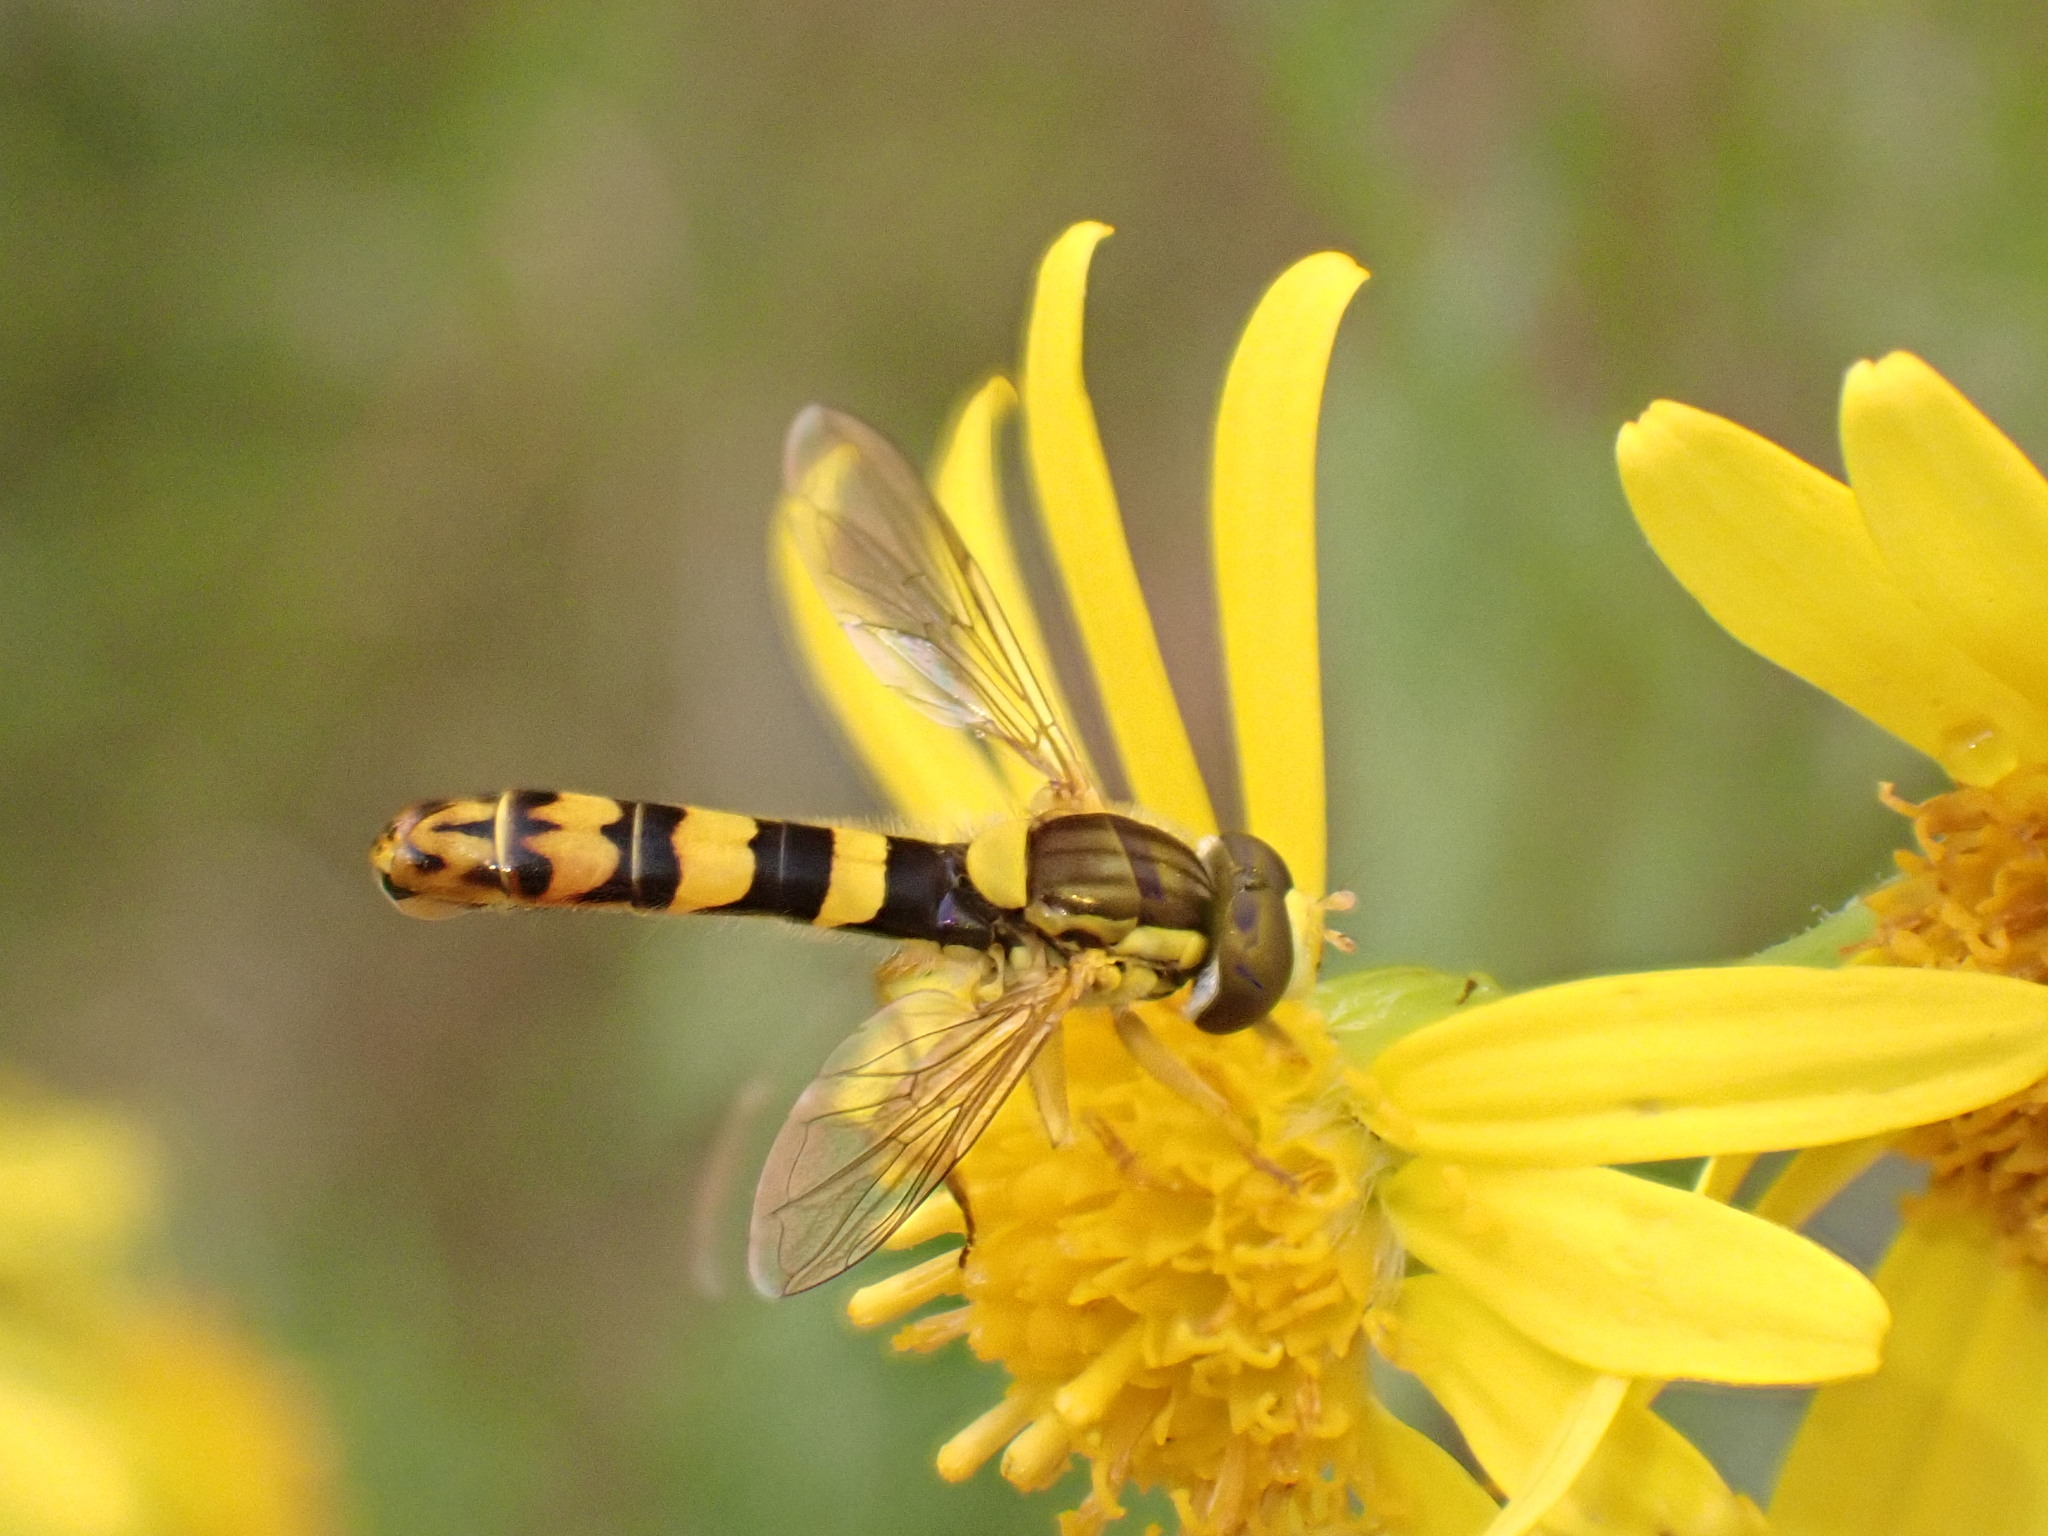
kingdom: Animalia
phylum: Arthropoda
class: Insecta
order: Diptera
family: Syrphidae
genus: Sphaerophoria
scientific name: Sphaerophoria scripta
